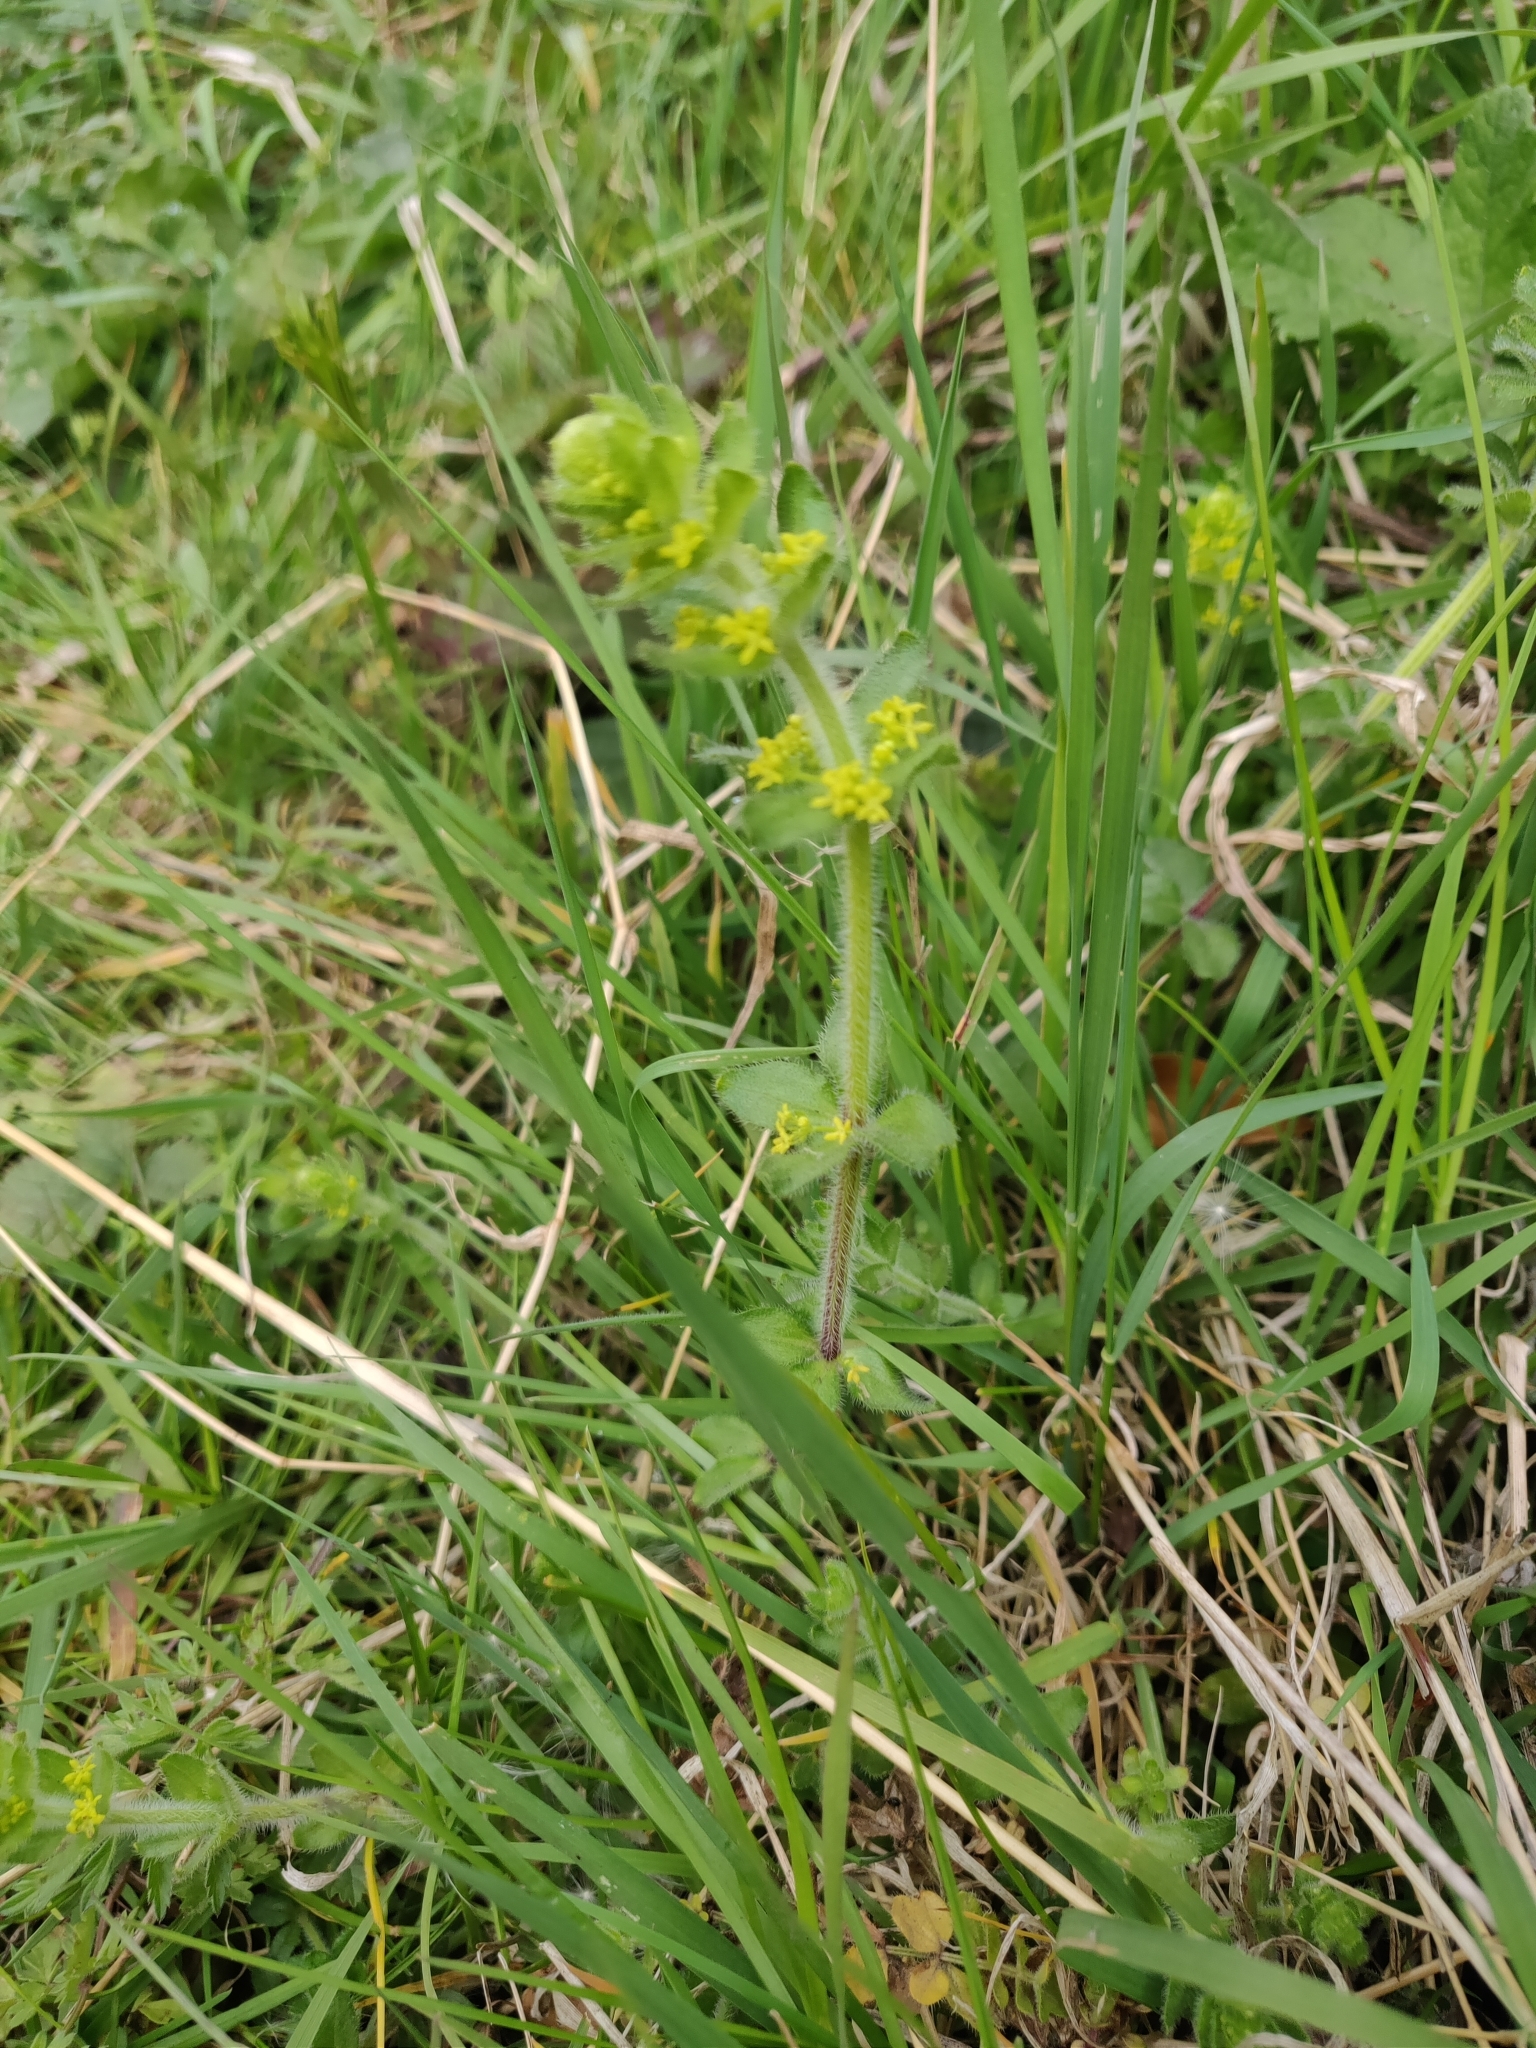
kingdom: Plantae
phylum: Tracheophyta
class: Magnoliopsida
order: Gentianales
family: Rubiaceae
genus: Cruciata
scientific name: Cruciata laevipes
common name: Crosswort
